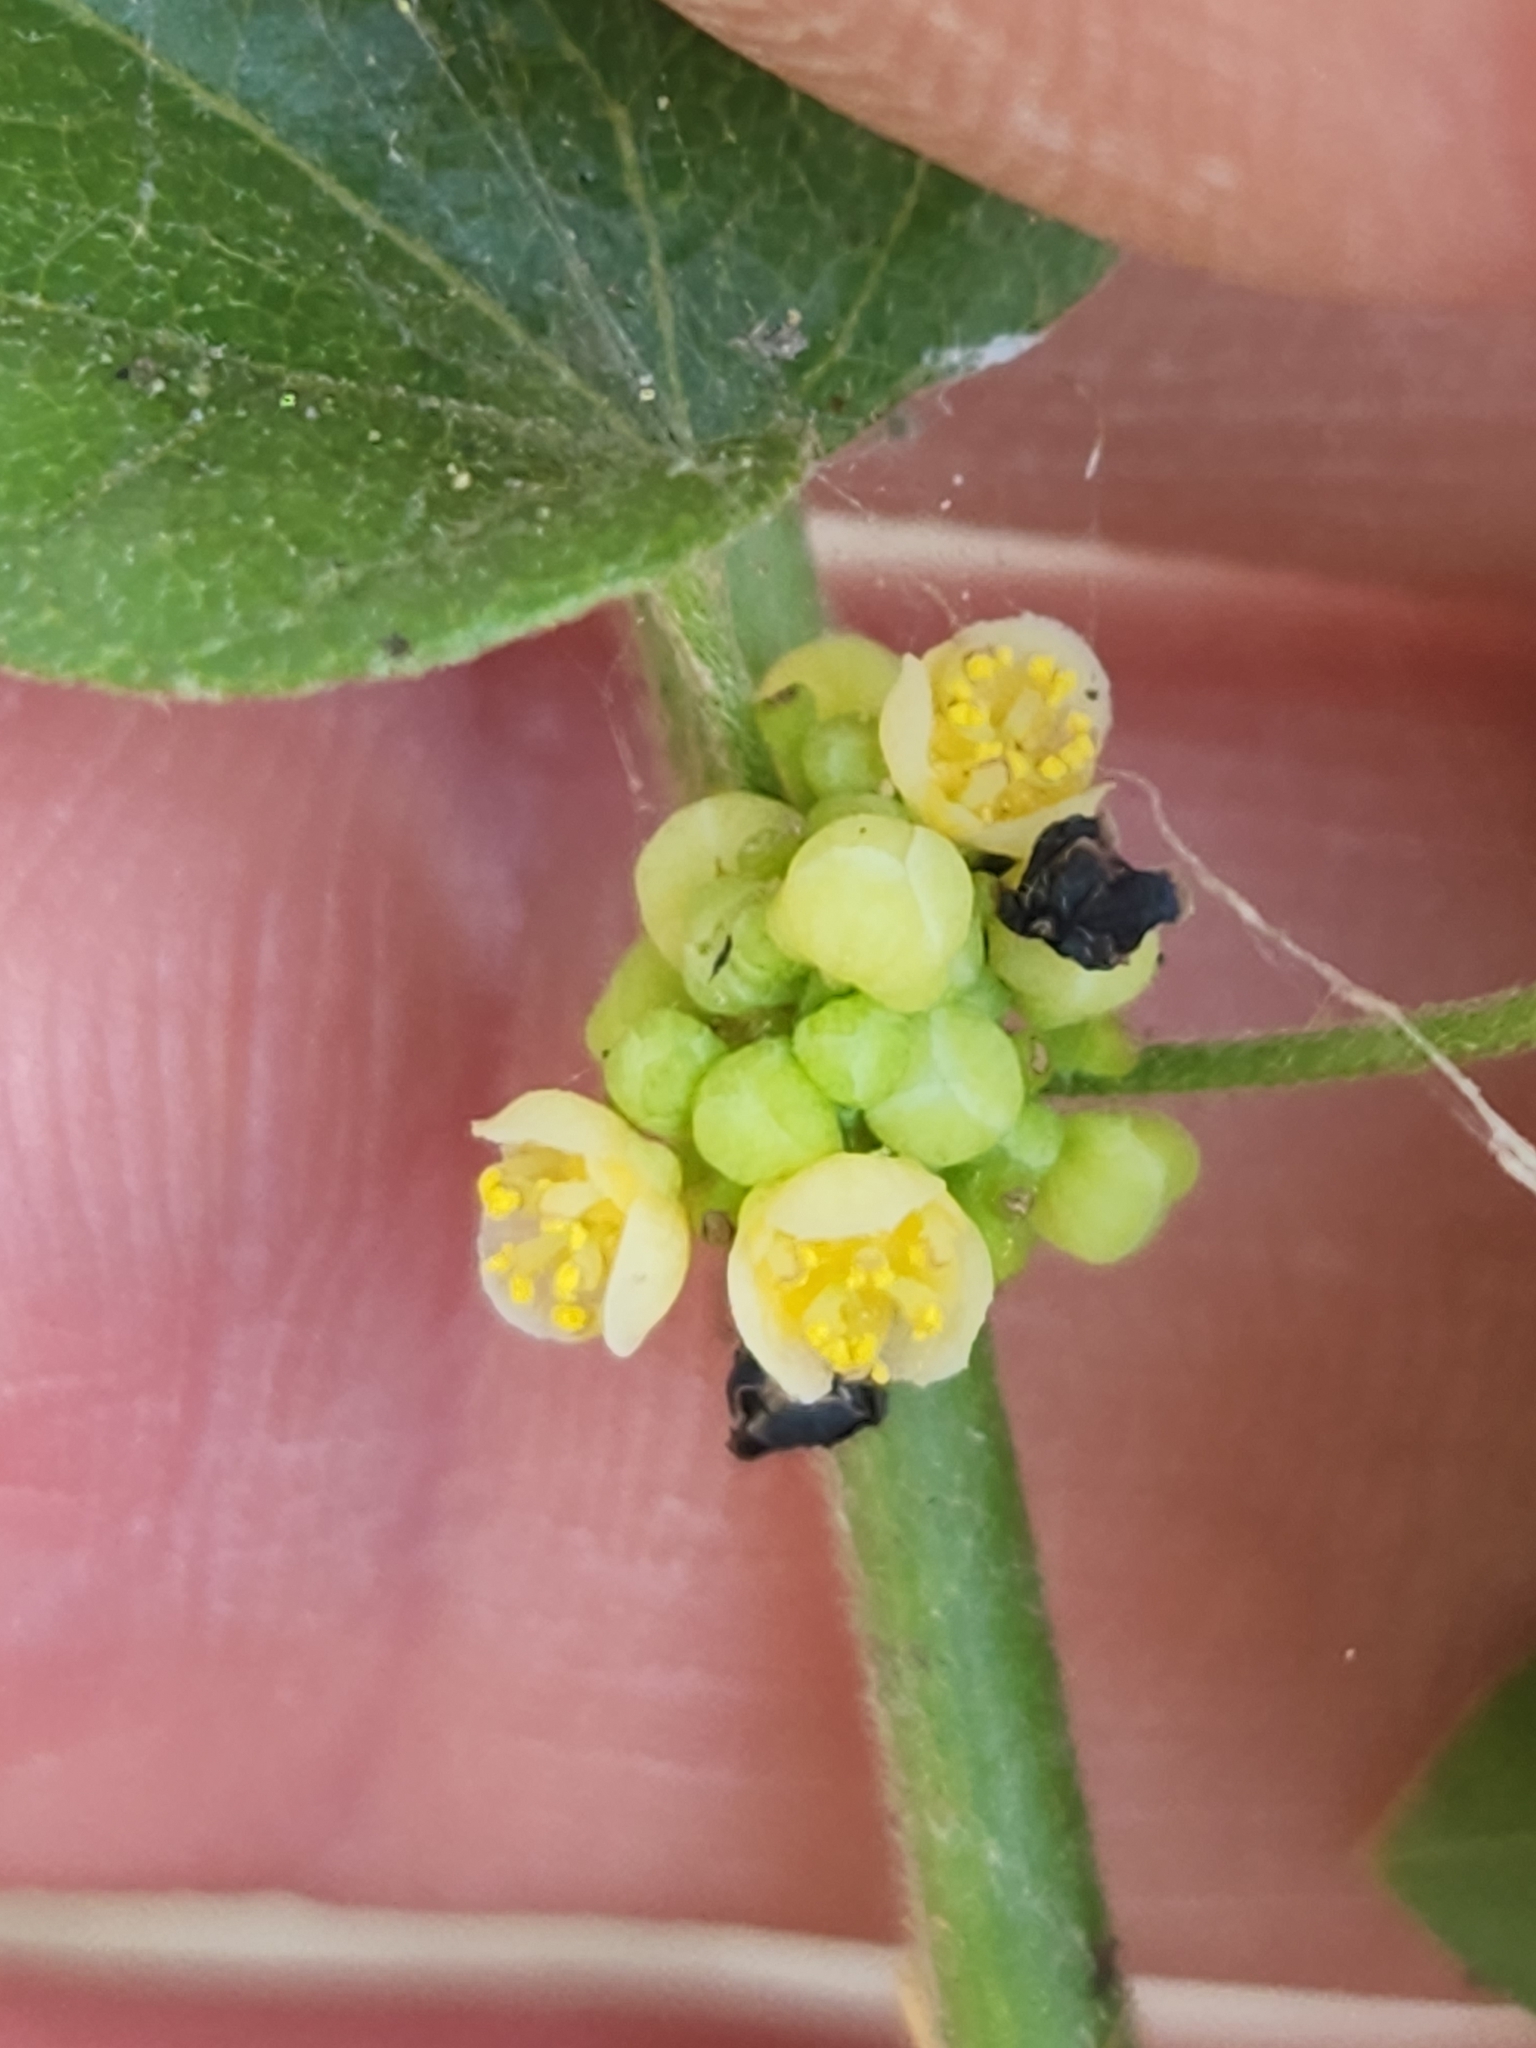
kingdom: Plantae
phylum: Tracheophyta
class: Magnoliopsida
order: Ranunculales
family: Menispermaceae
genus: Cocculus
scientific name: Cocculus carolinus
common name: Carolina moonseed
